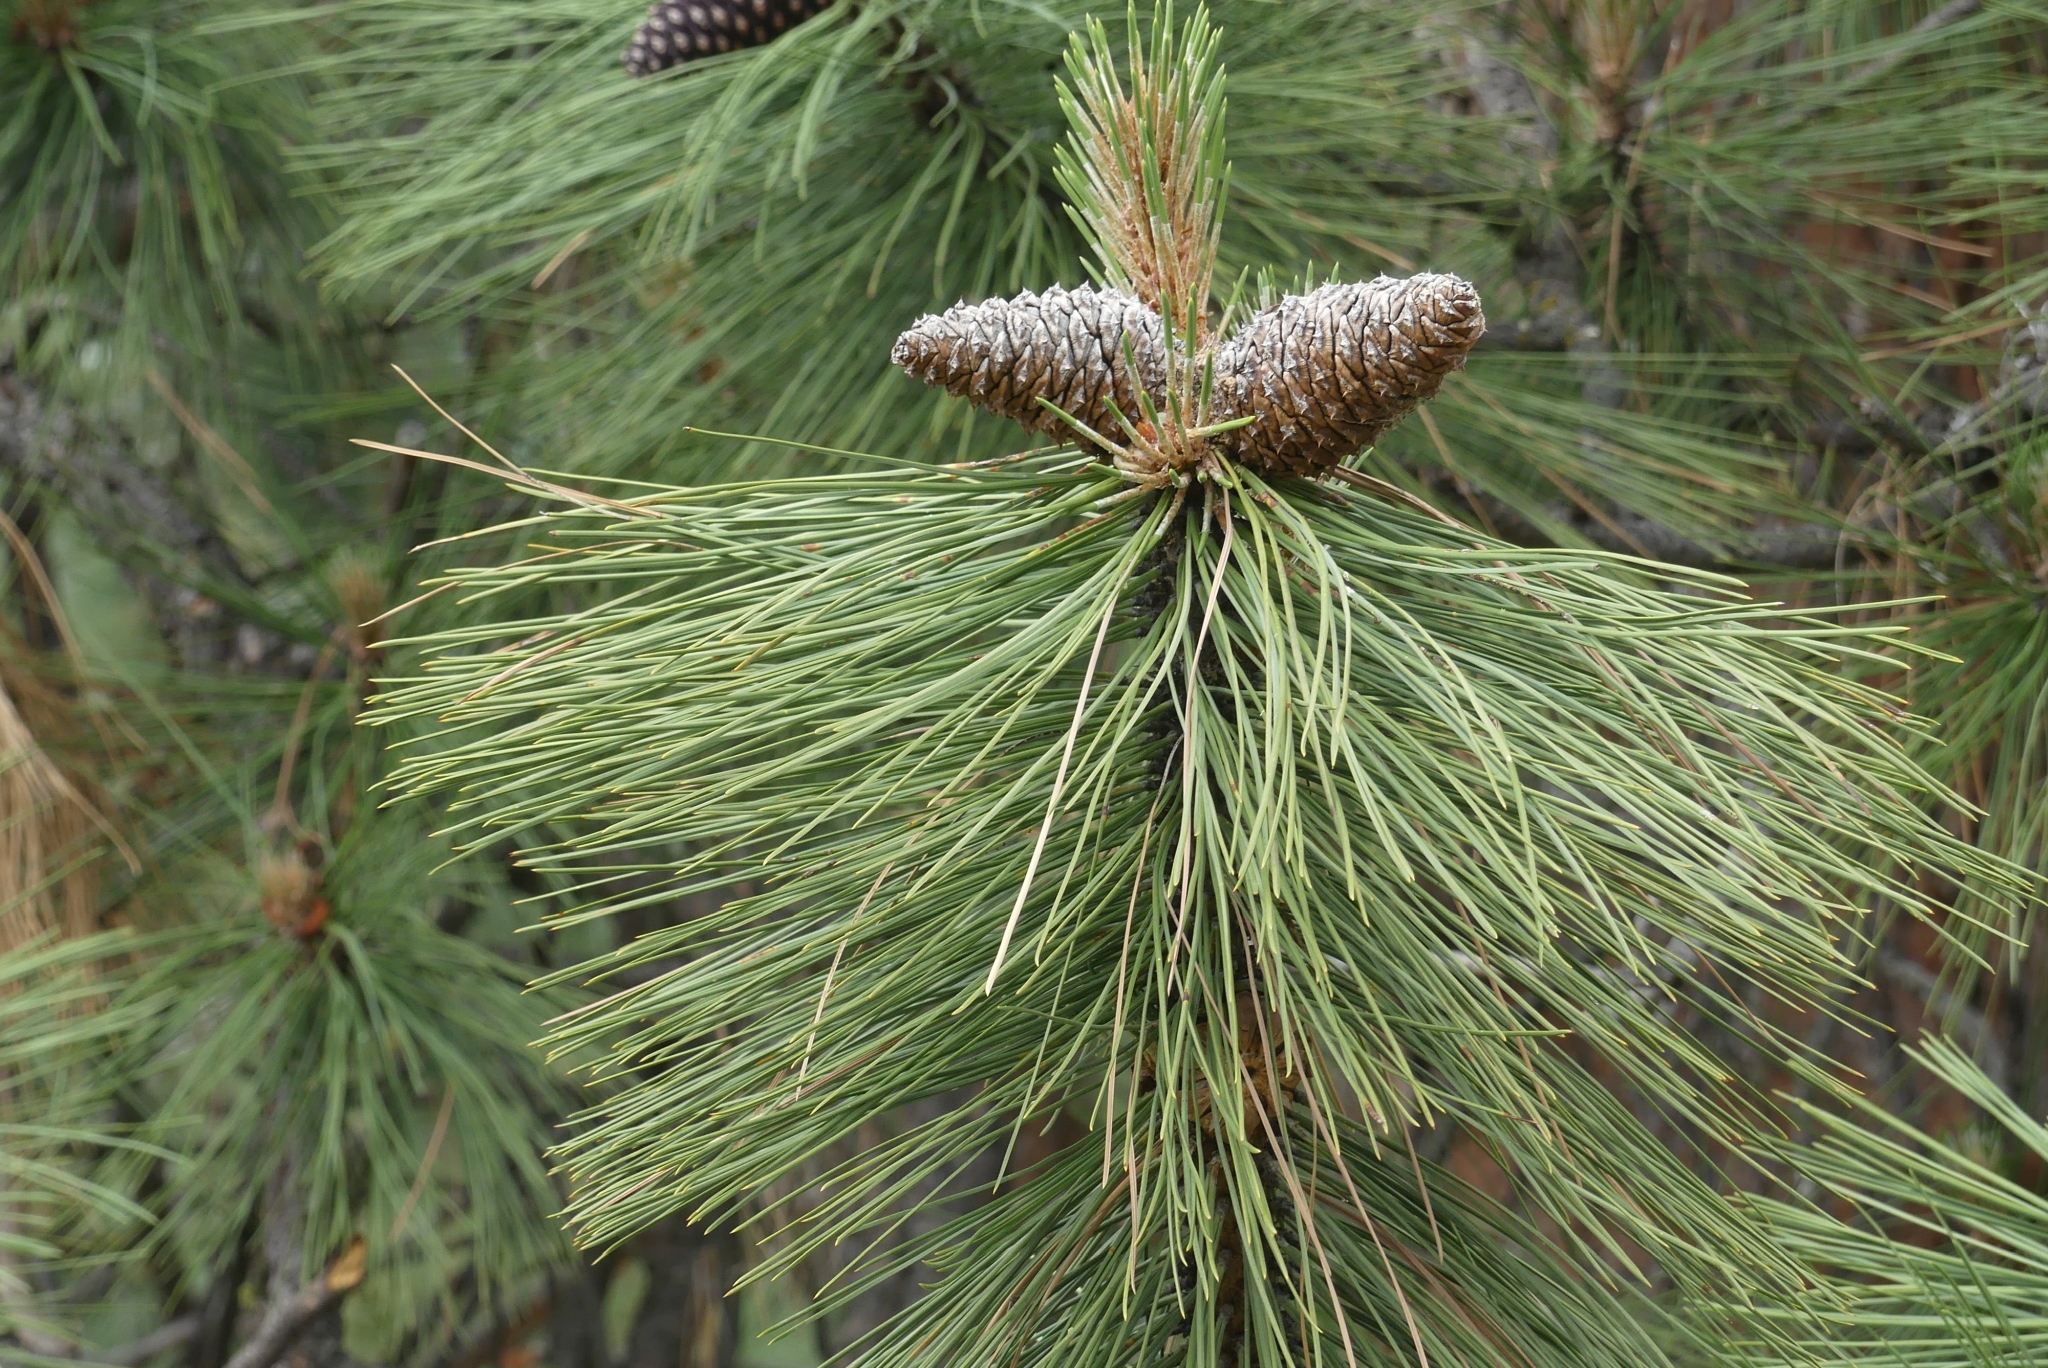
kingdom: Plantae
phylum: Tracheophyta
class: Pinopsida
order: Pinales
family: Pinaceae
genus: Pinus
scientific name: Pinus ponderosa
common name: Western yellow-pine
